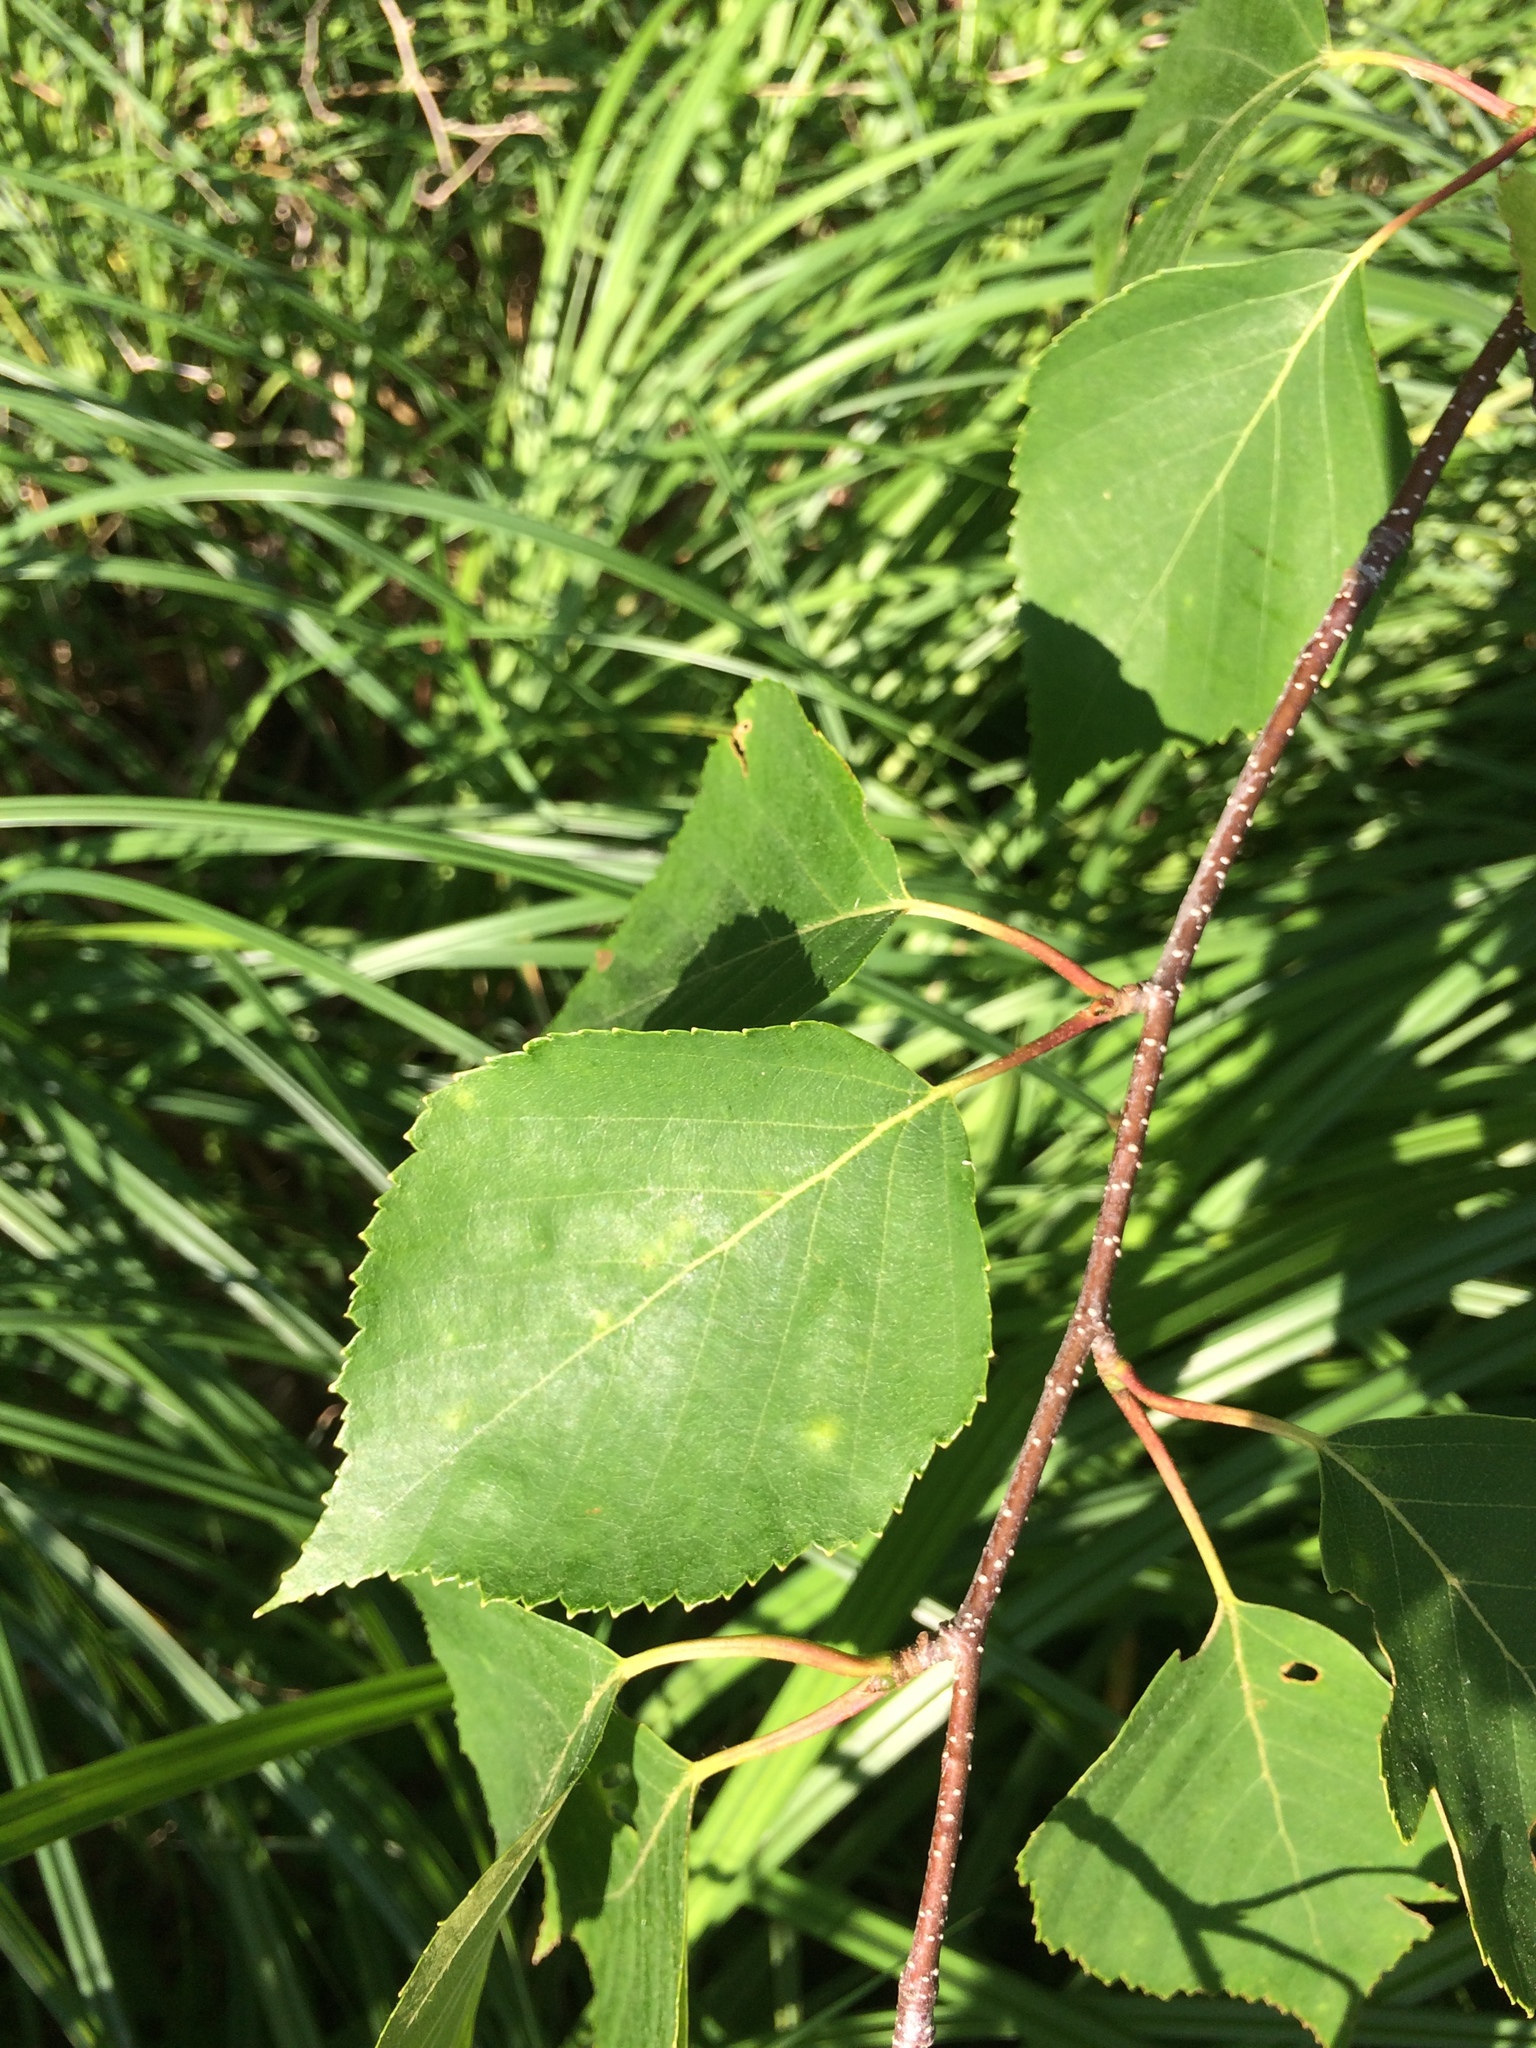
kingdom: Plantae
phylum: Tracheophyta
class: Magnoliopsida
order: Fagales
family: Betulaceae
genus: Betula
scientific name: Betula papyrifera
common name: Paper birch
